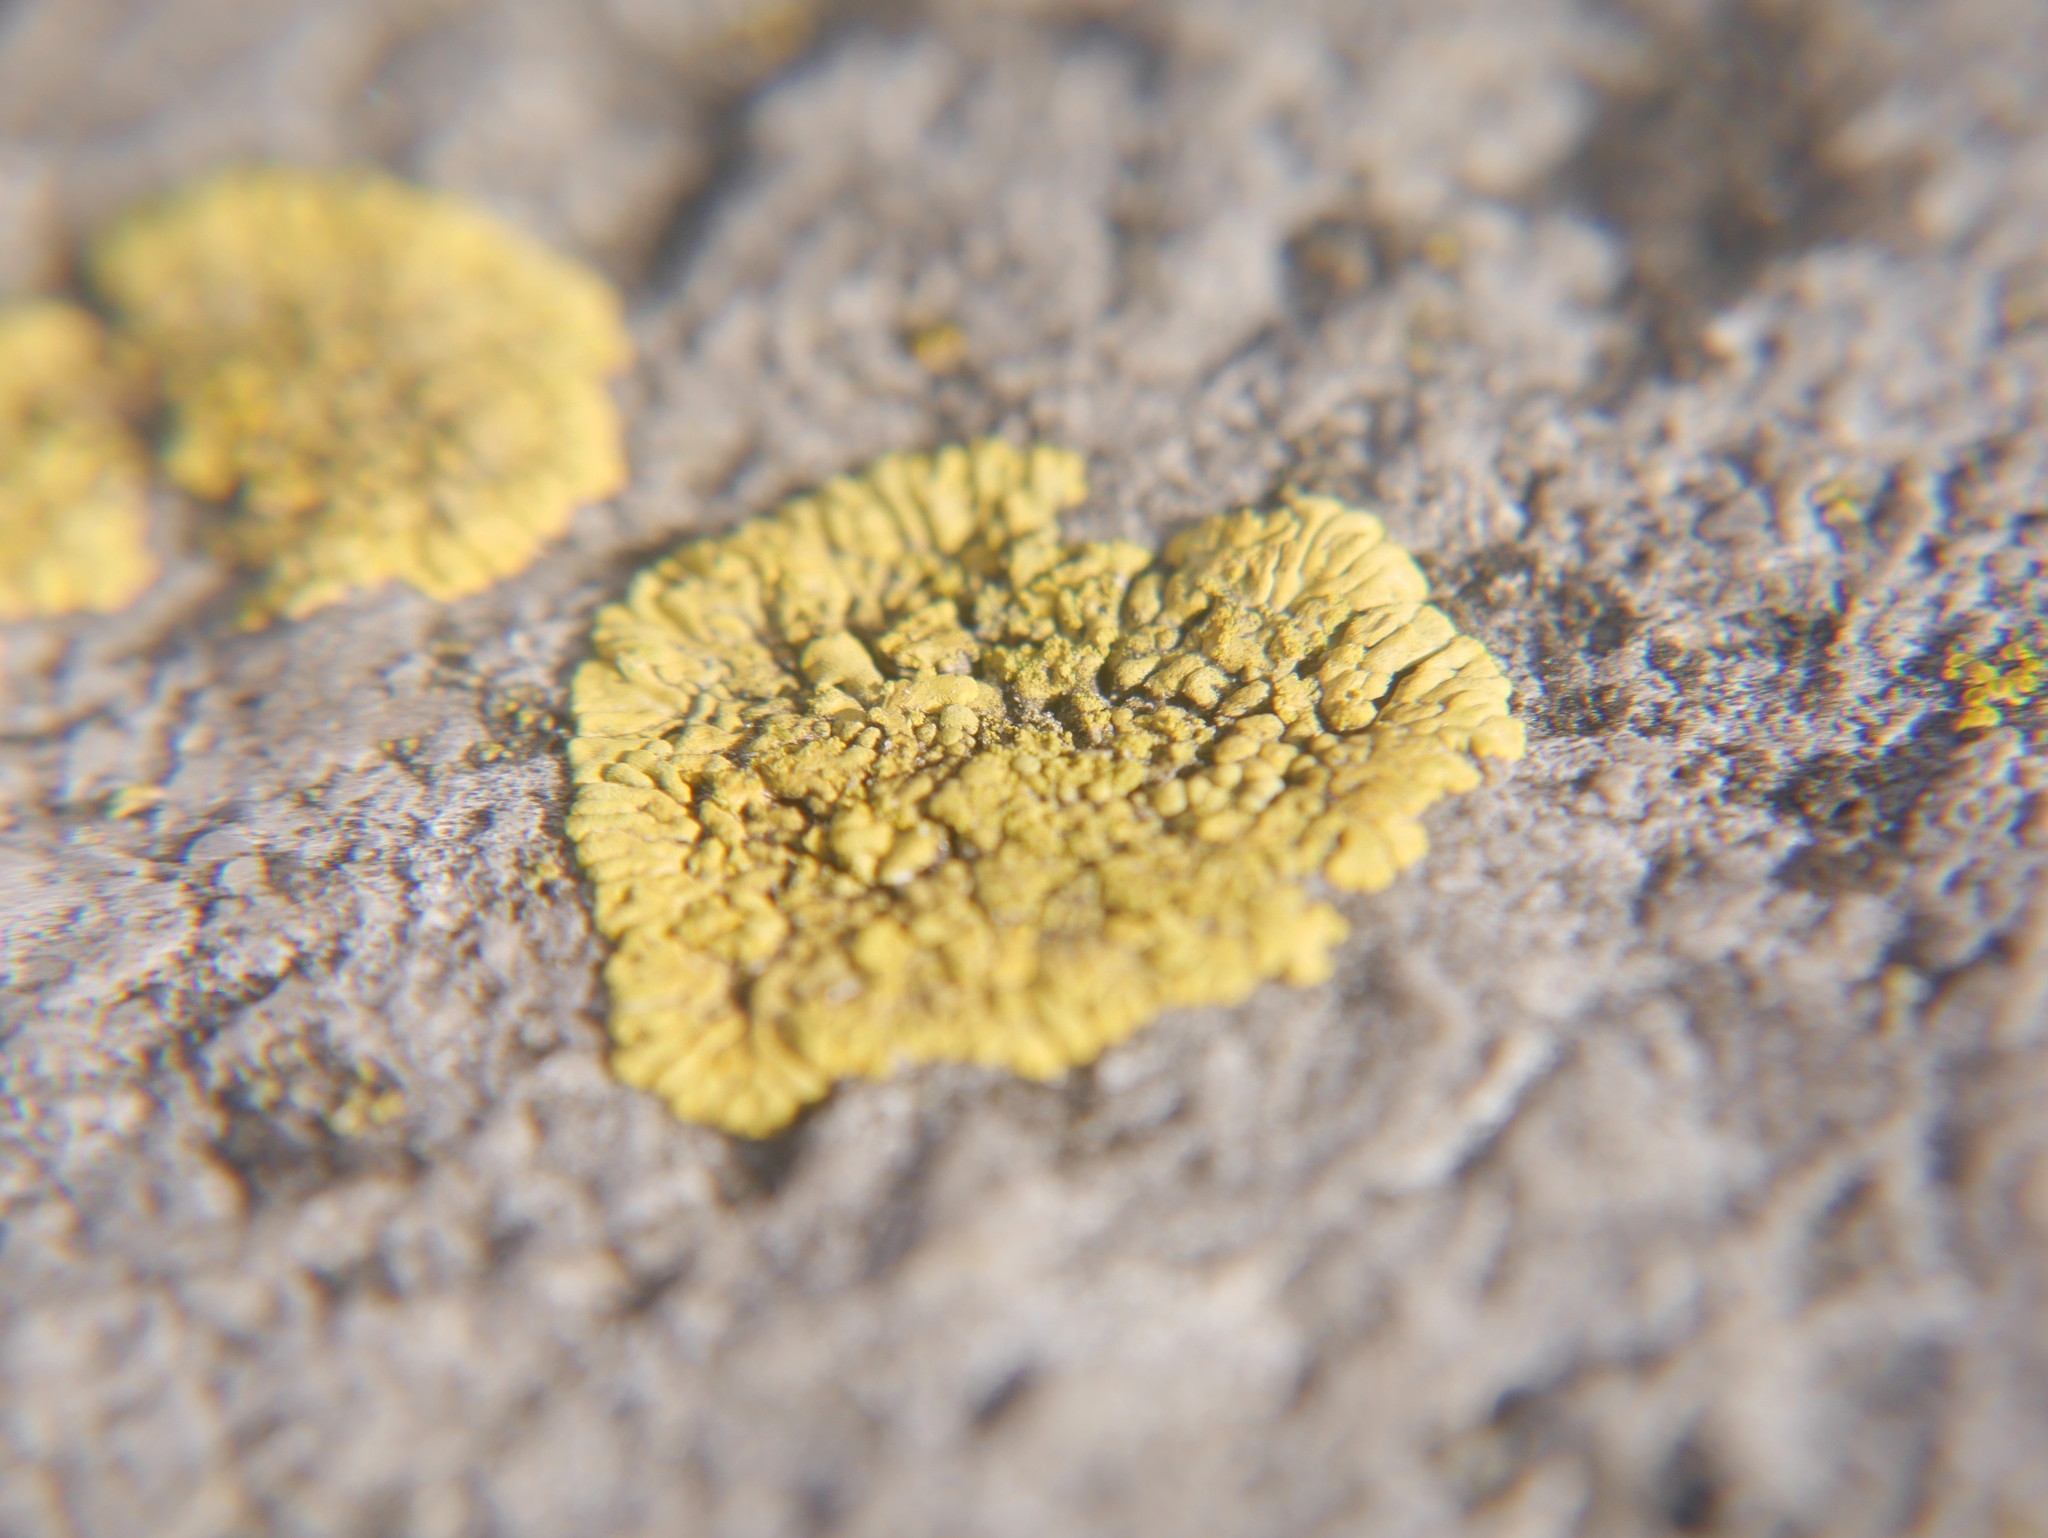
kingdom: Fungi
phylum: Ascomycota
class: Lecanoromycetes
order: Teloschistales
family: Teloschistaceae
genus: Calogaya
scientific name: Calogaya decipiens
